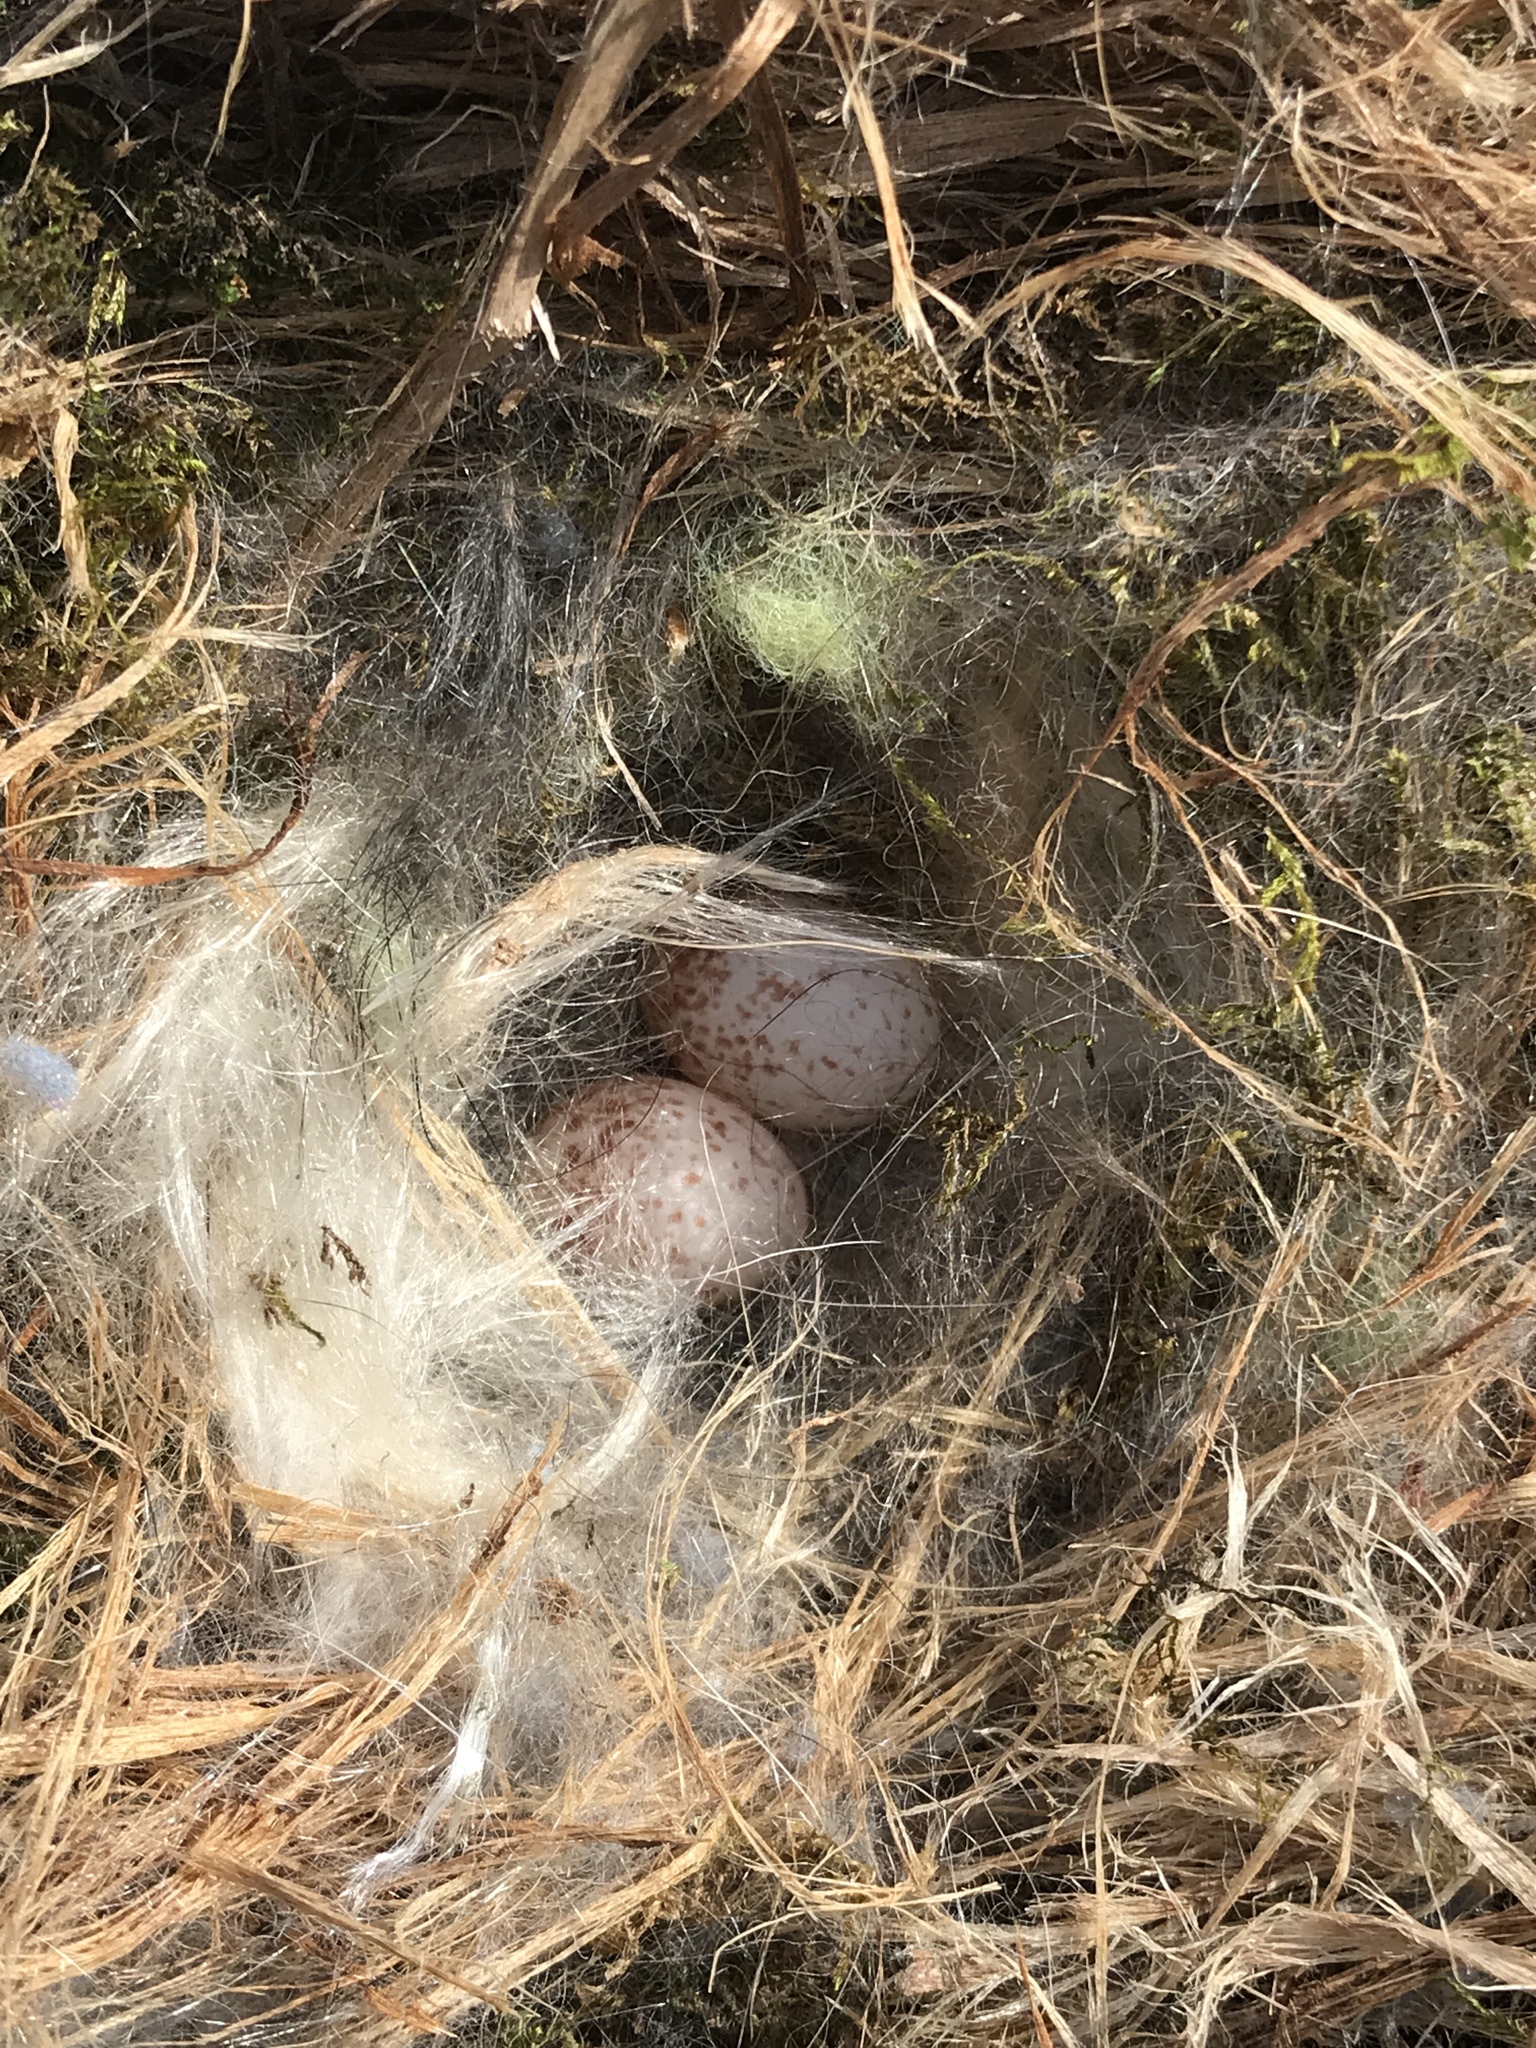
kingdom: Animalia
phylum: Chordata
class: Aves
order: Passeriformes
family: Cardinalidae
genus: Cardinalis
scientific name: Cardinalis cardinalis
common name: Northern cardinal
